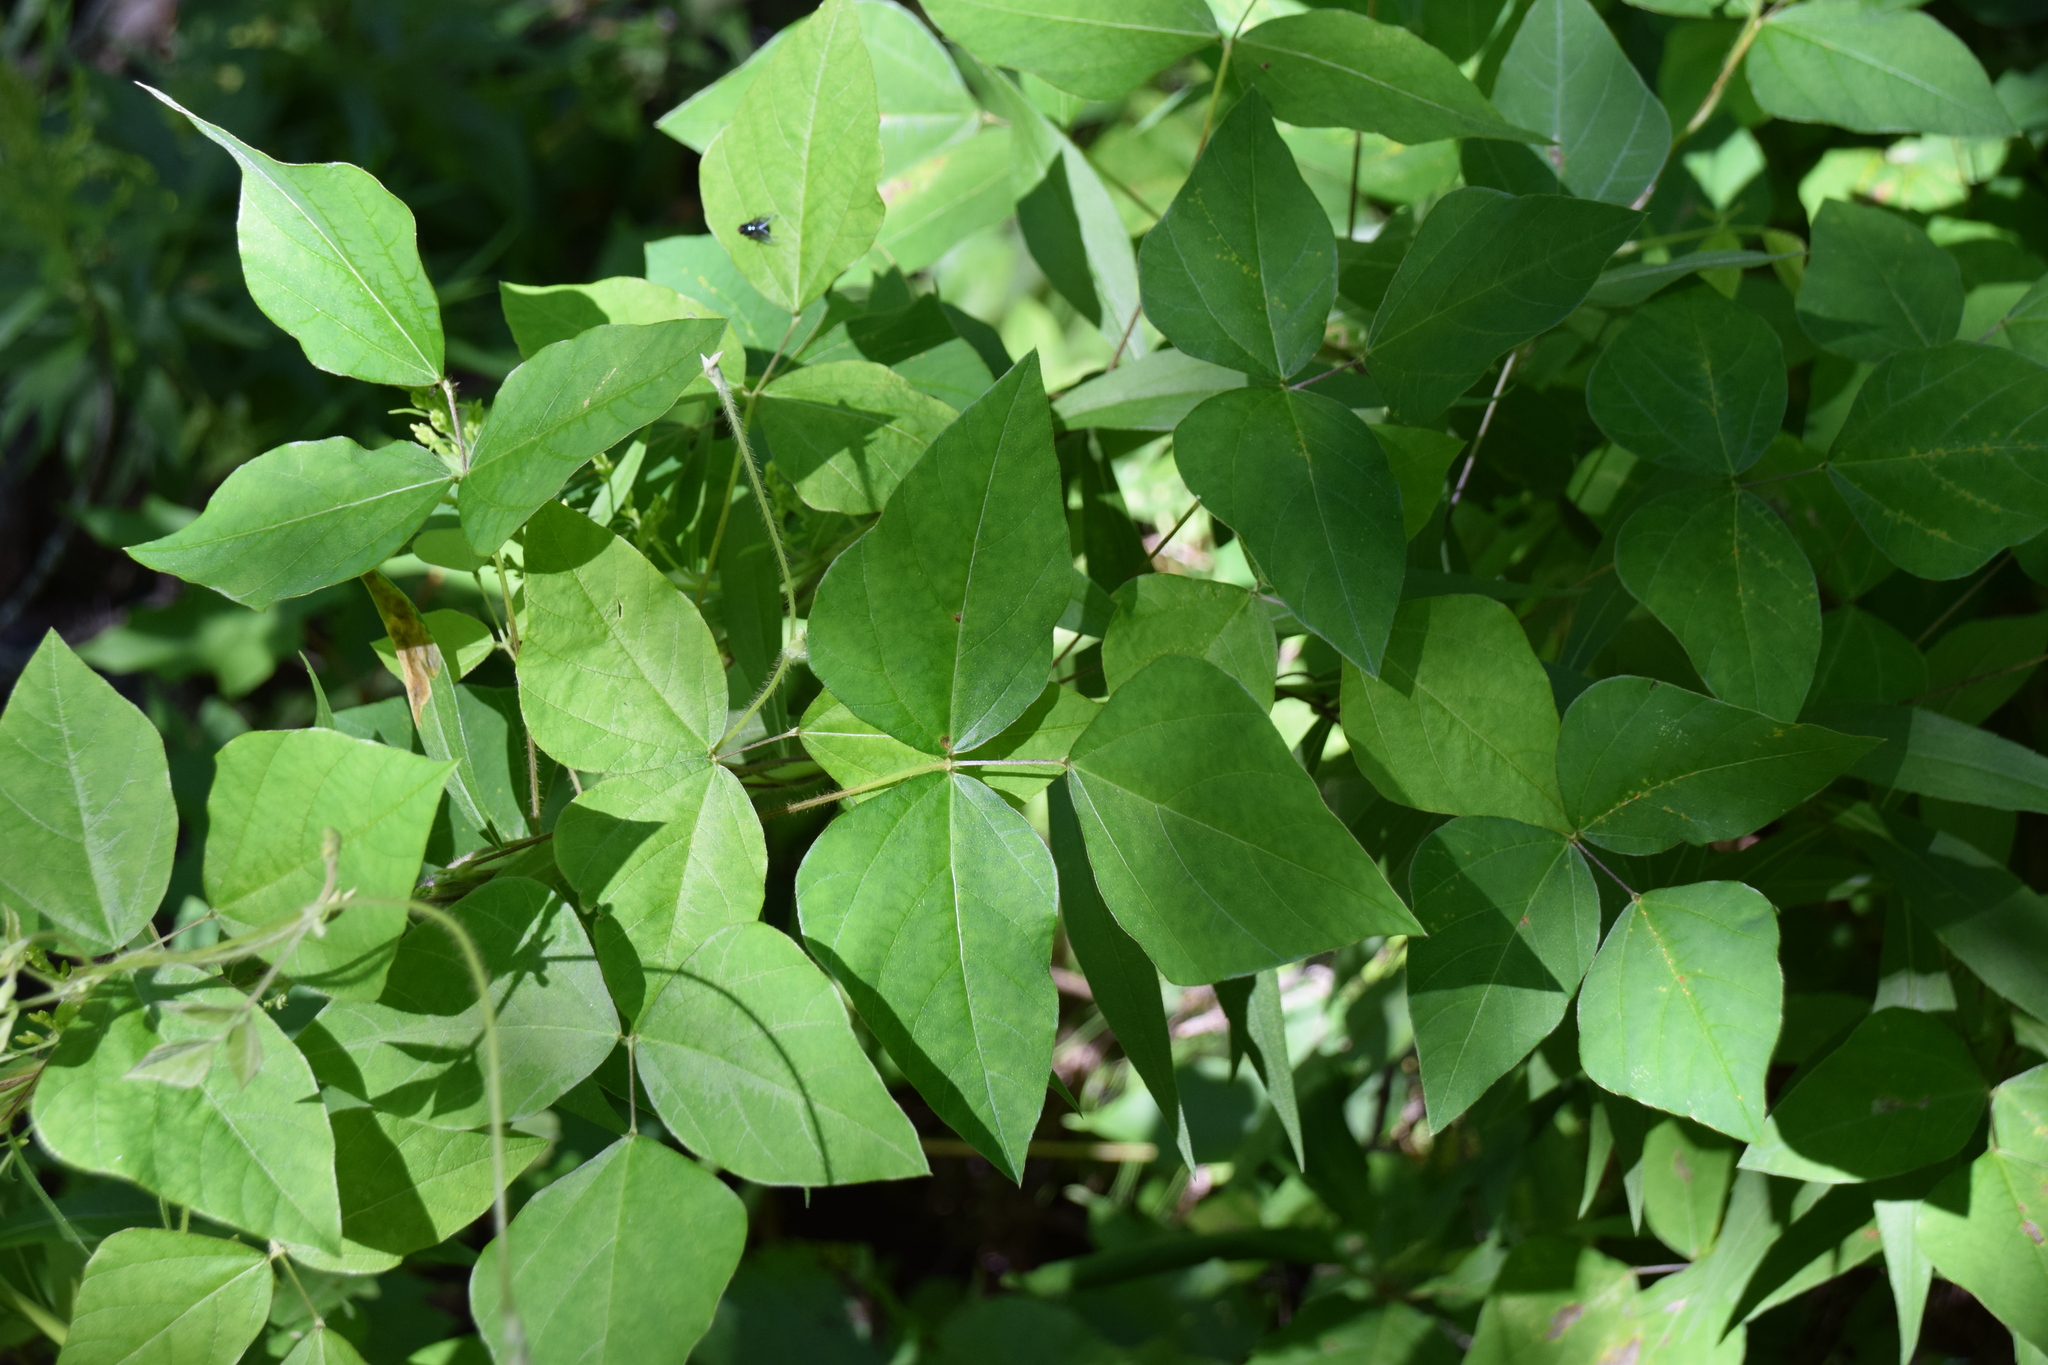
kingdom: Plantae
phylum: Tracheophyta
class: Magnoliopsida
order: Fabales
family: Fabaceae
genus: Amphicarpaea
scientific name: Amphicarpaea bracteata
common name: American hog peanut
